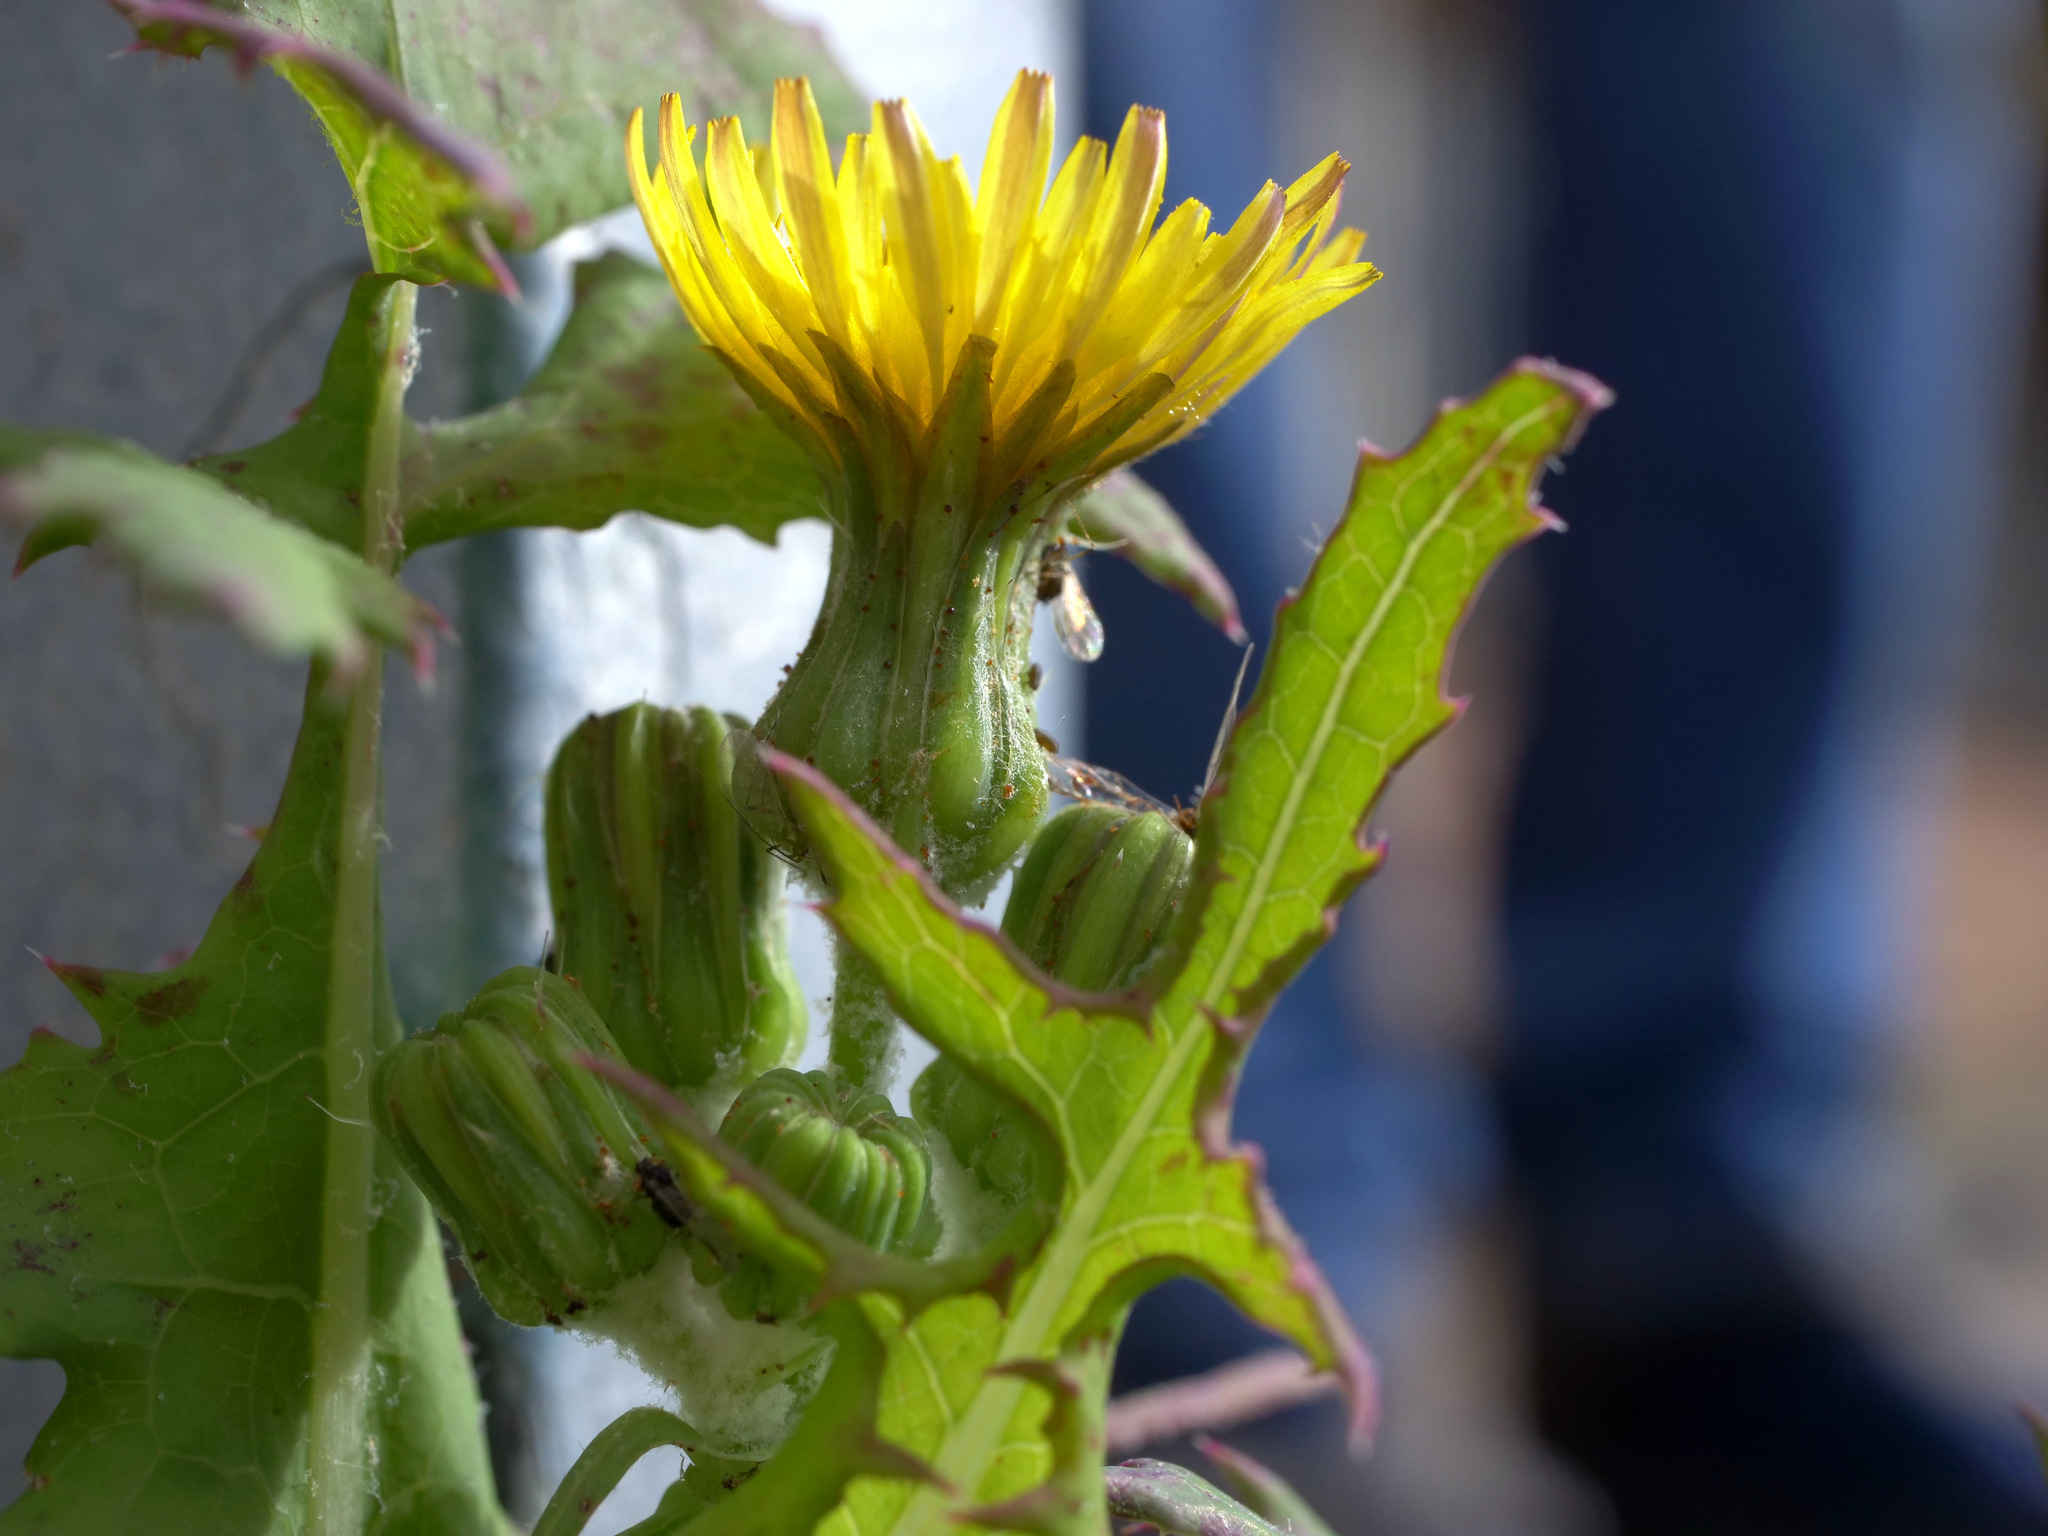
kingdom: Plantae
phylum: Tracheophyta
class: Magnoliopsida
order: Asterales
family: Asteraceae
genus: Sonchus
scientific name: Sonchus oleraceus
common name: Common sowthistle
